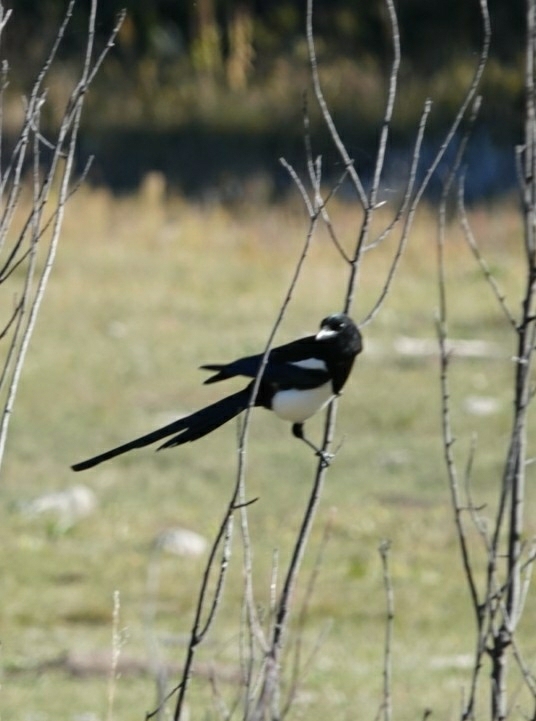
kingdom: Animalia
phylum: Chordata
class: Aves
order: Passeriformes
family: Corvidae
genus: Pica
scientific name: Pica hudsonia
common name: Black-billed magpie
